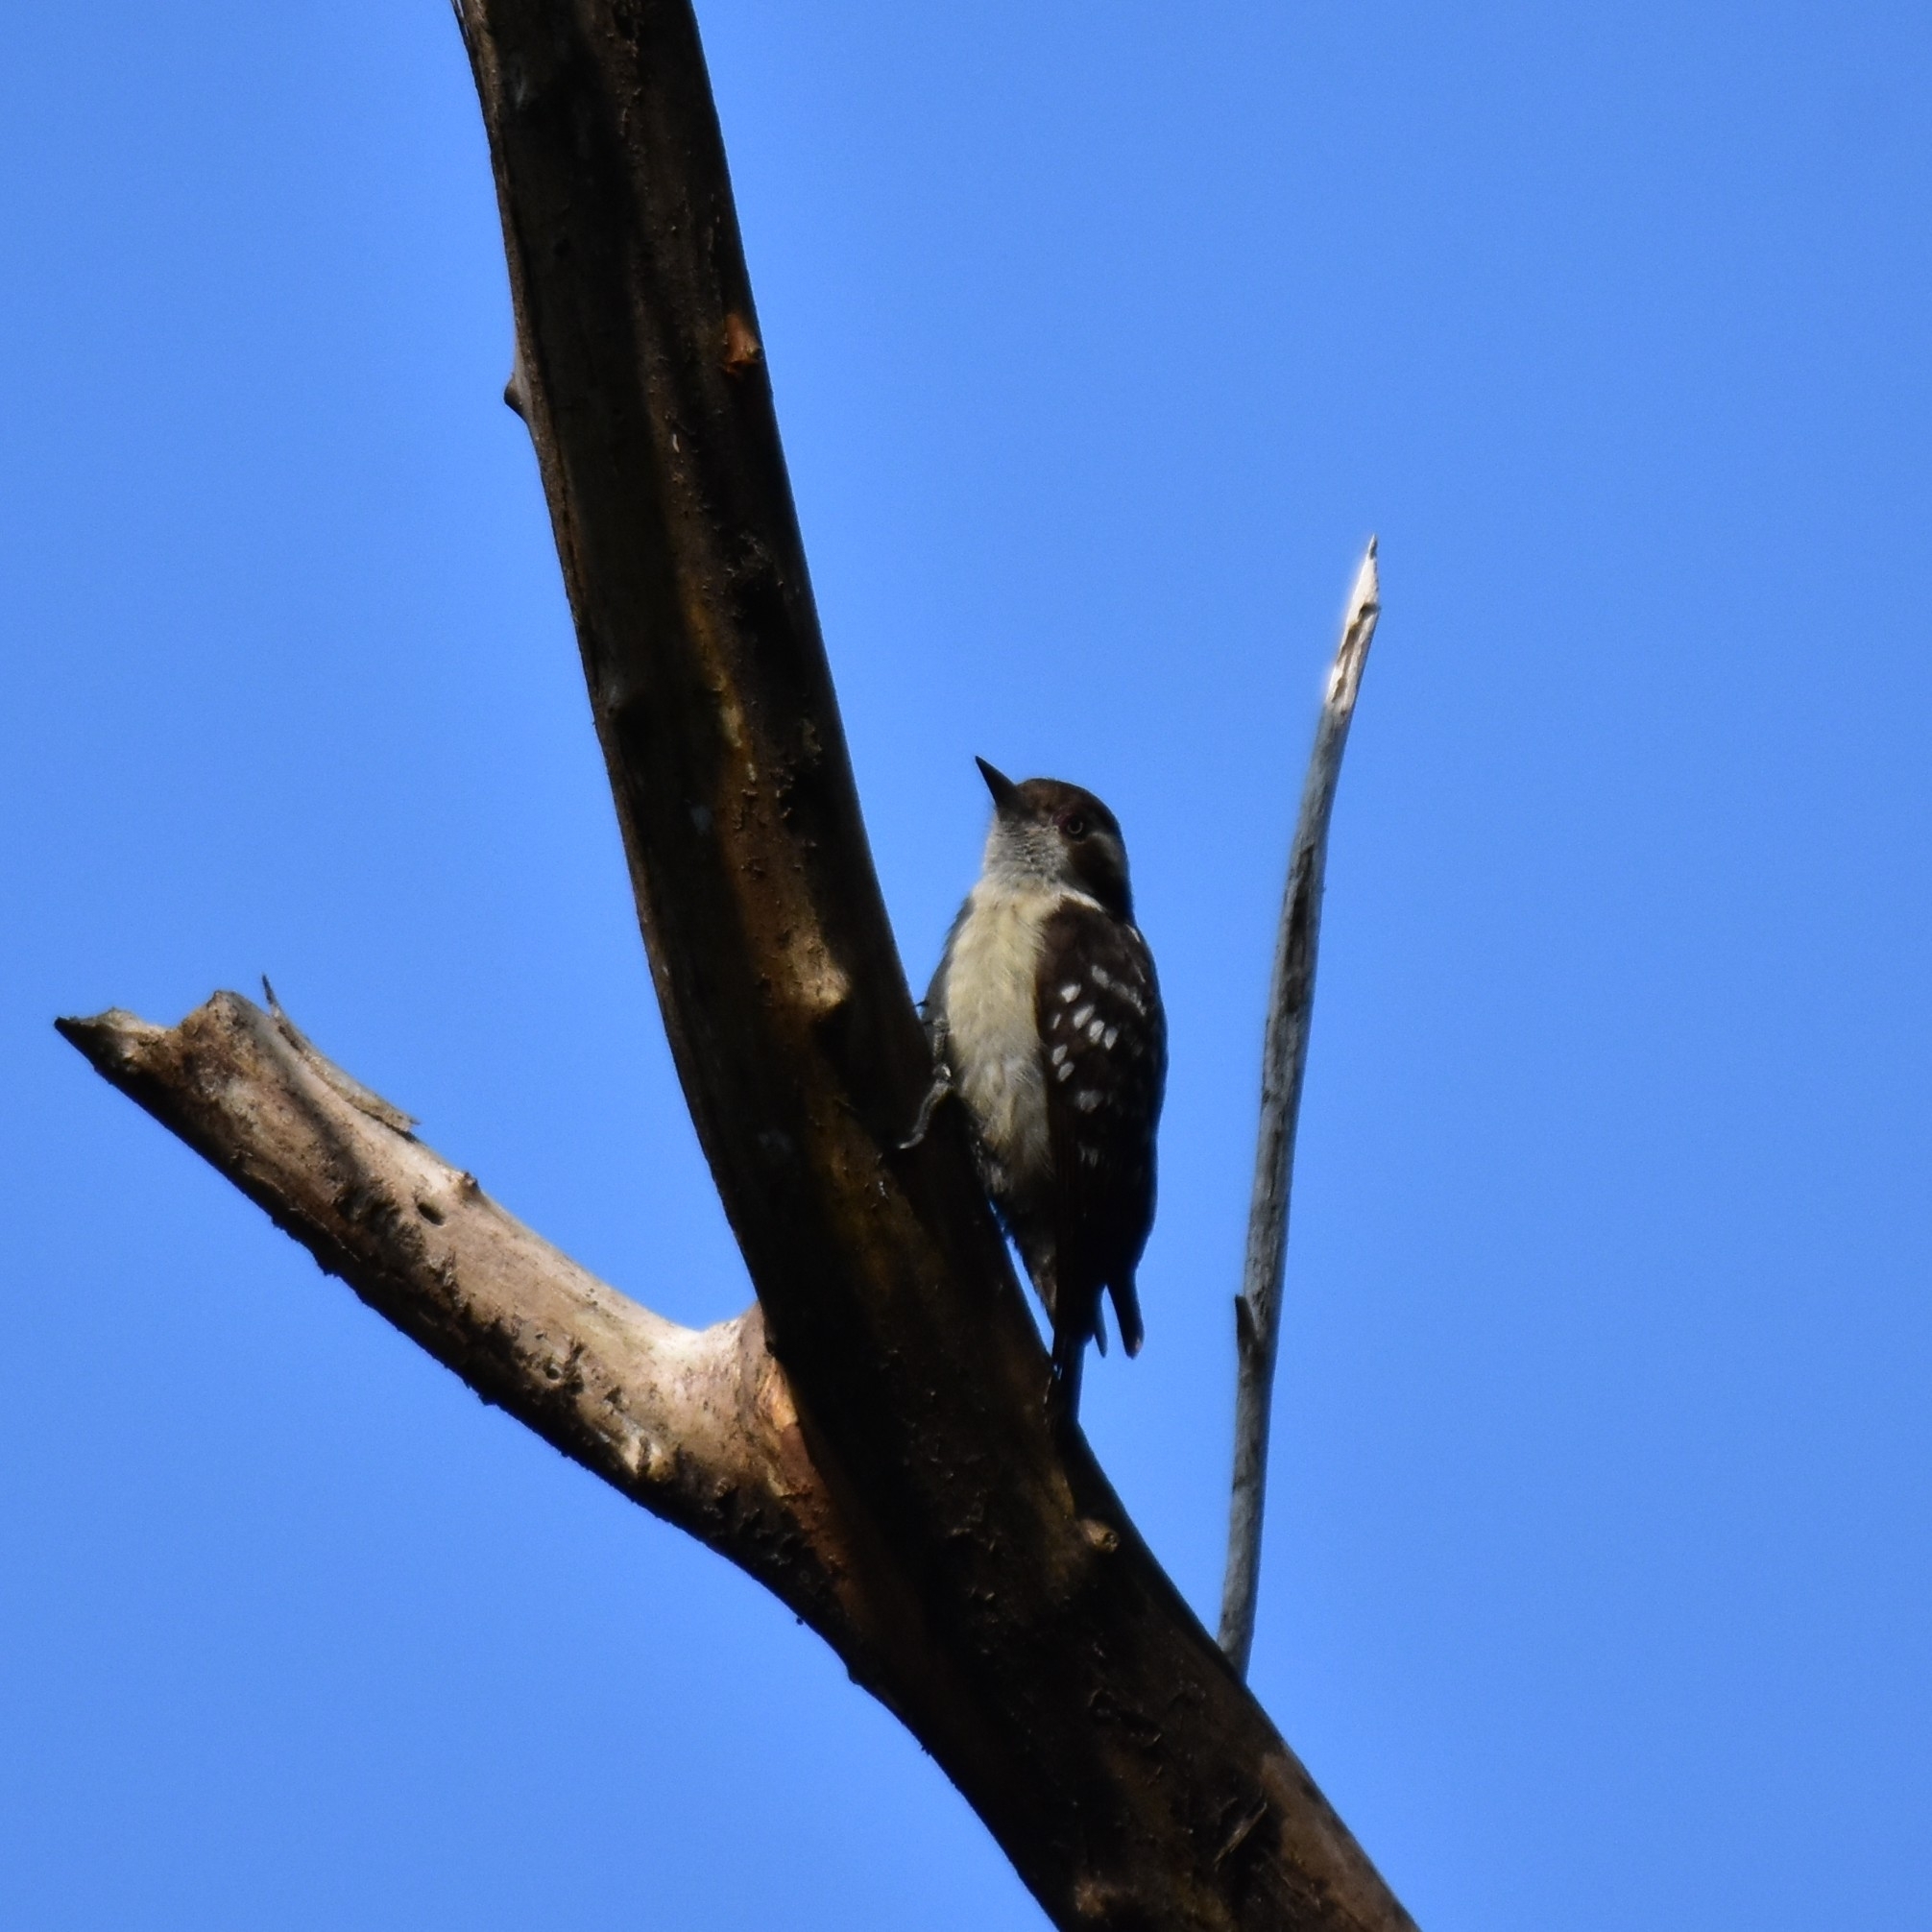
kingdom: Animalia
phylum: Chordata
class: Aves
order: Piciformes
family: Picidae
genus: Yungipicus
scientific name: Yungipicus nanus
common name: Brown-capped pygmy woodpecker
